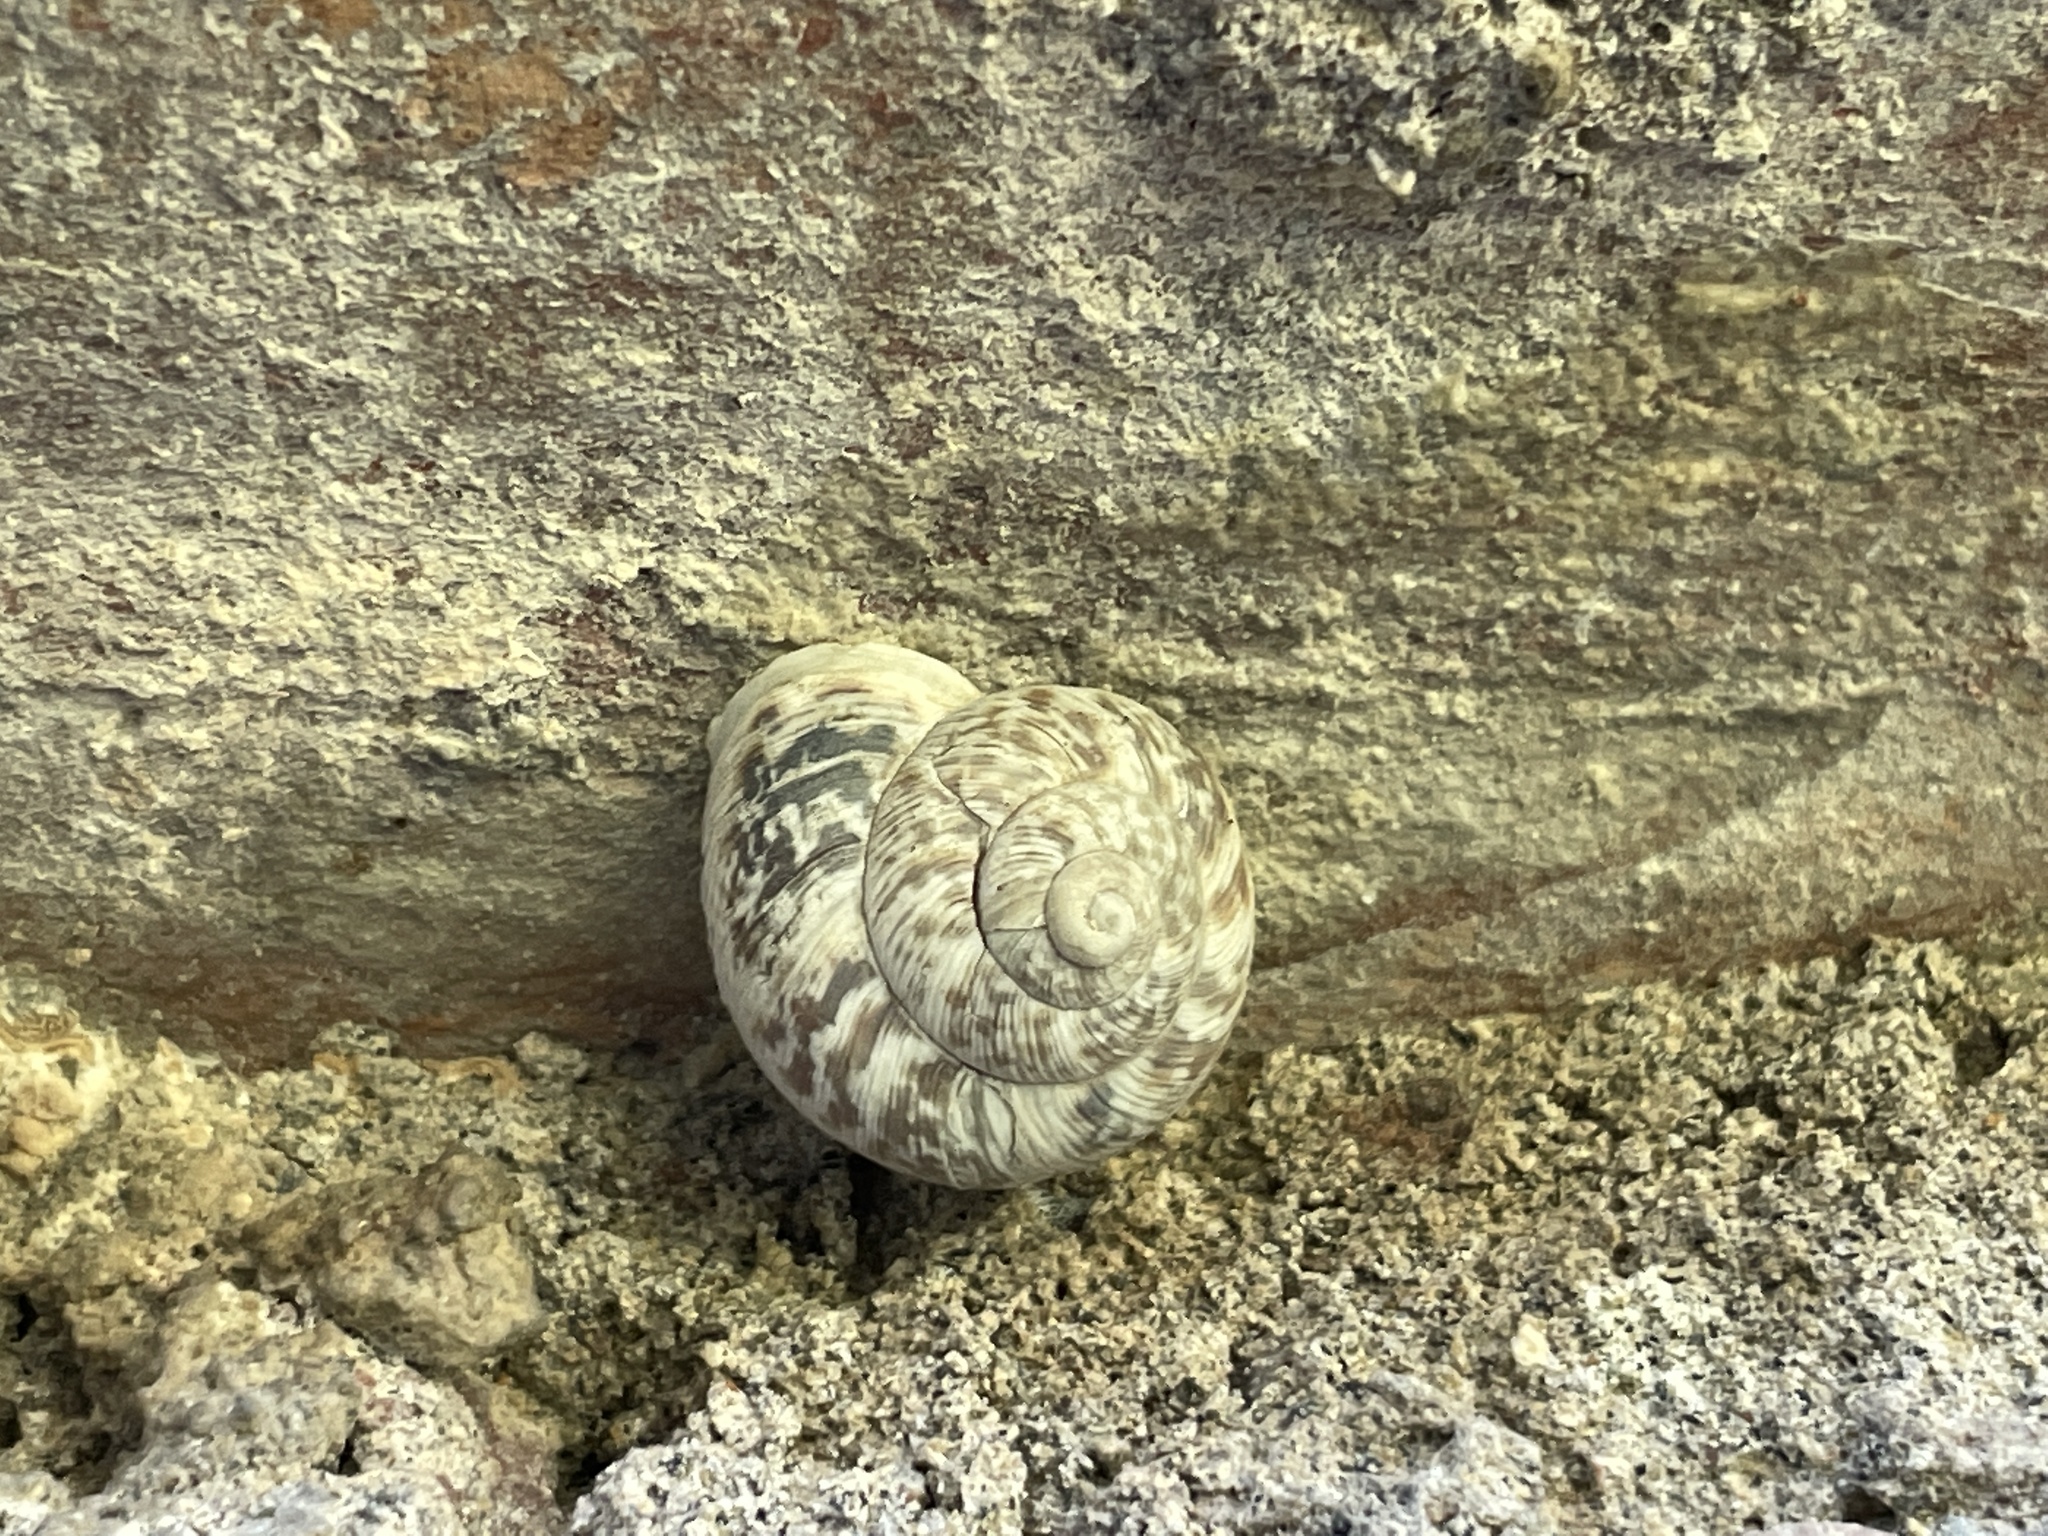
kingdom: Animalia
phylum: Mollusca
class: Gastropoda
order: Stylommatophora
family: Helicidae
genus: Marmorana
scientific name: Marmorana muralis
